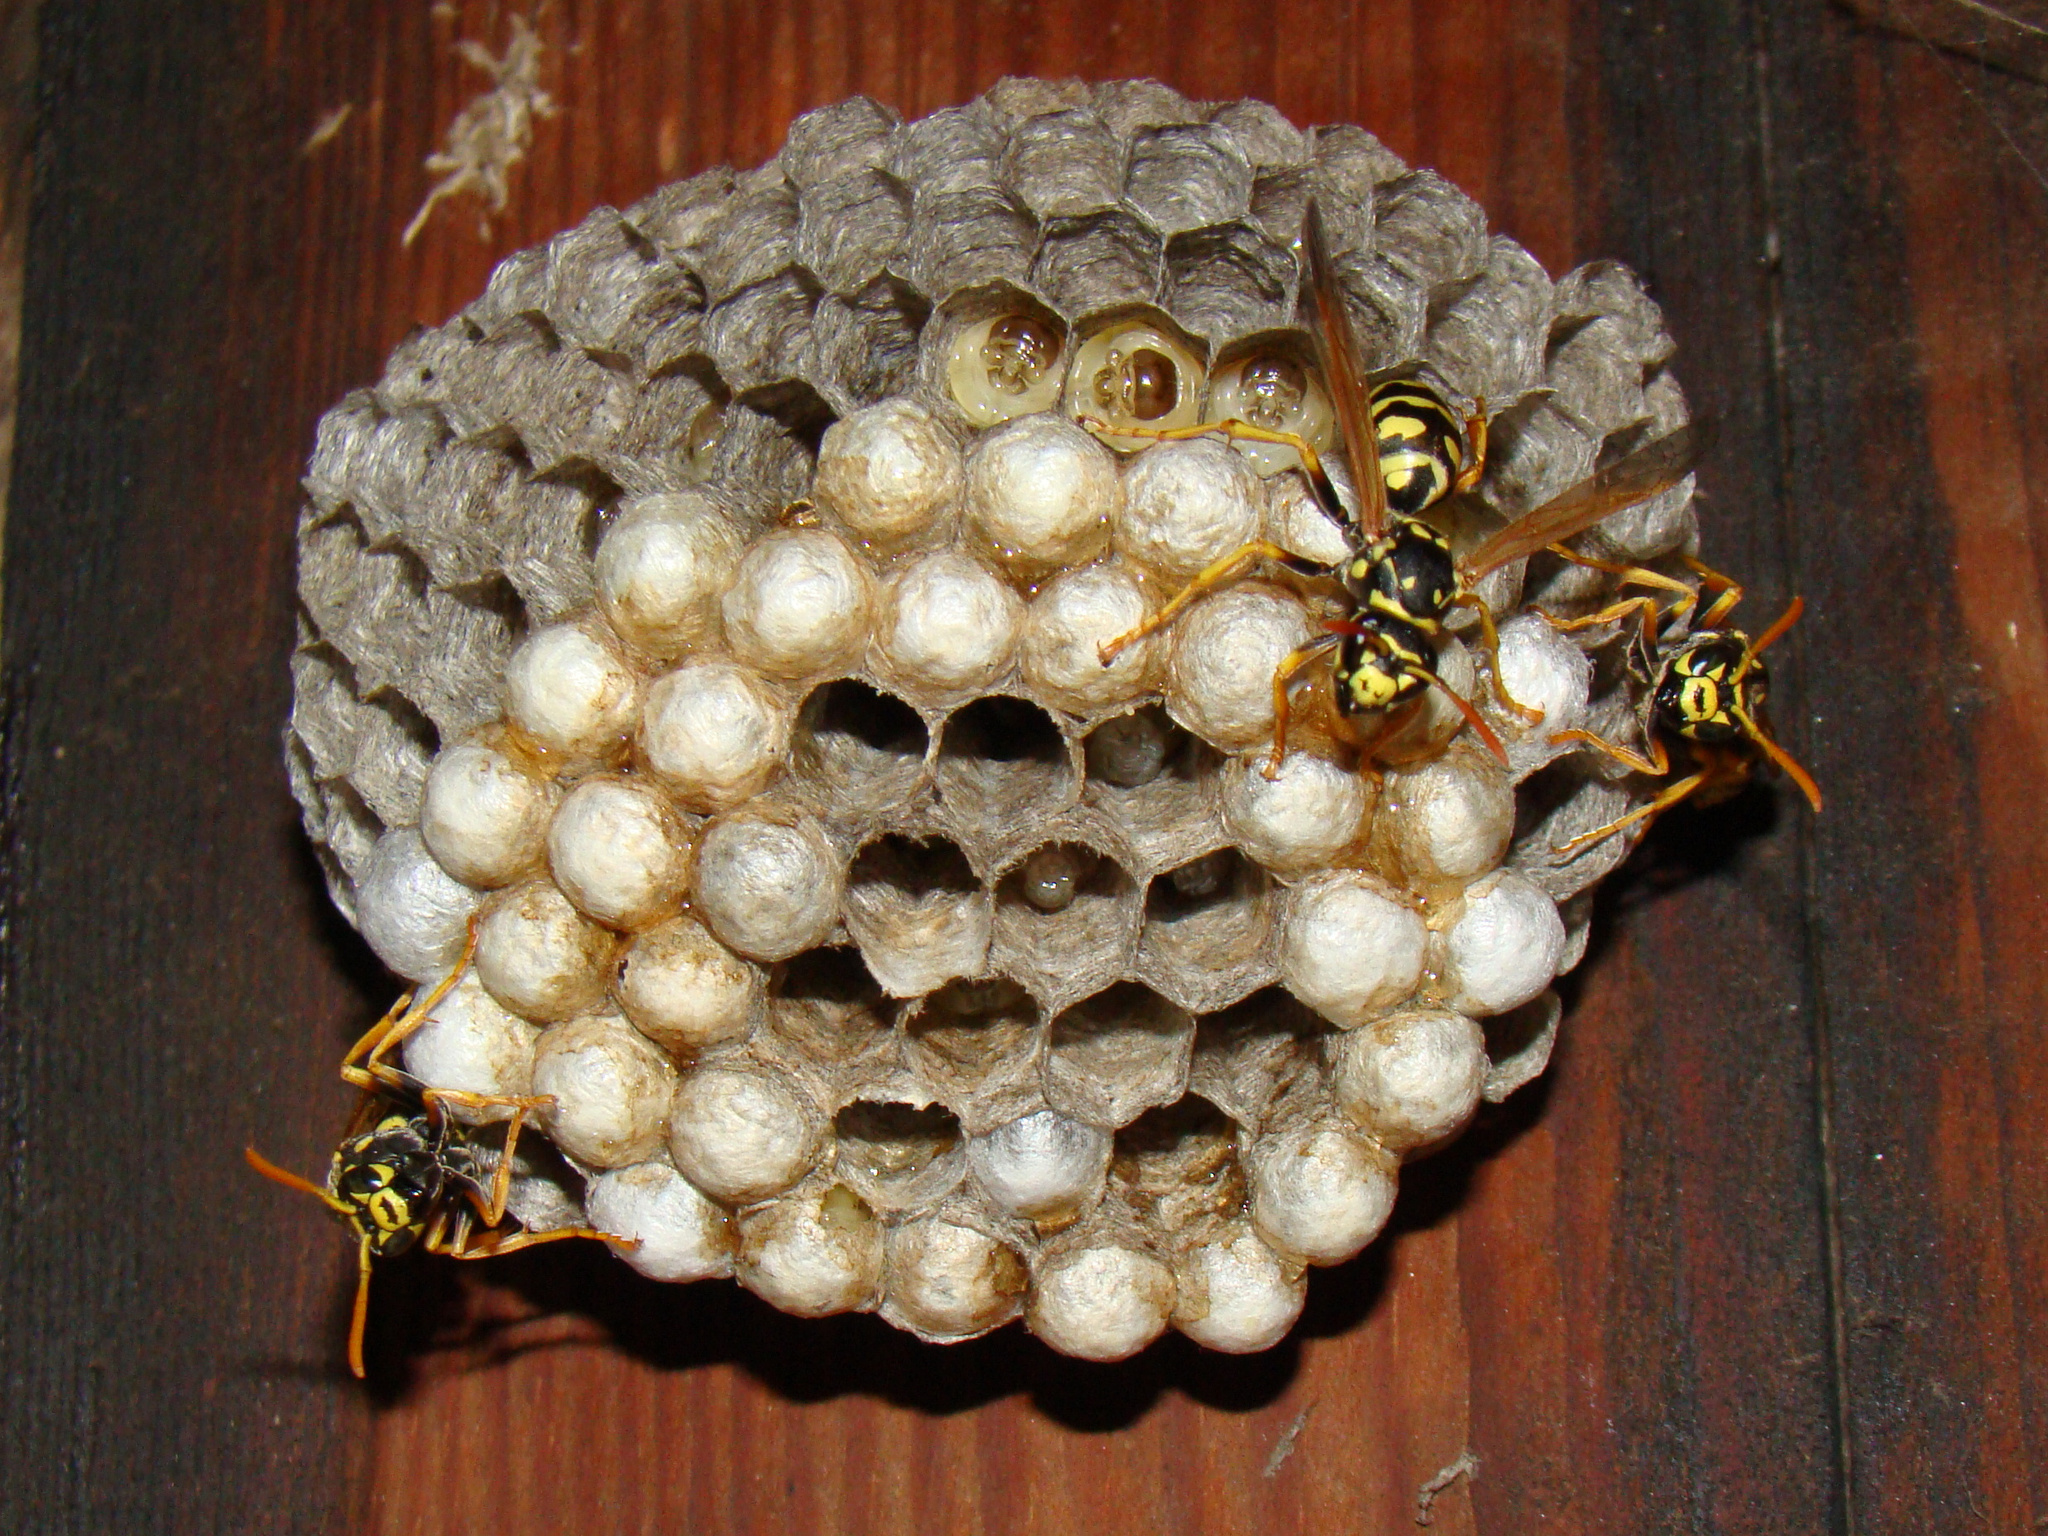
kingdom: Animalia
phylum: Arthropoda
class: Insecta
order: Hymenoptera
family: Eumenidae
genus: Polistes
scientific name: Polistes dominula
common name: Paper wasp
